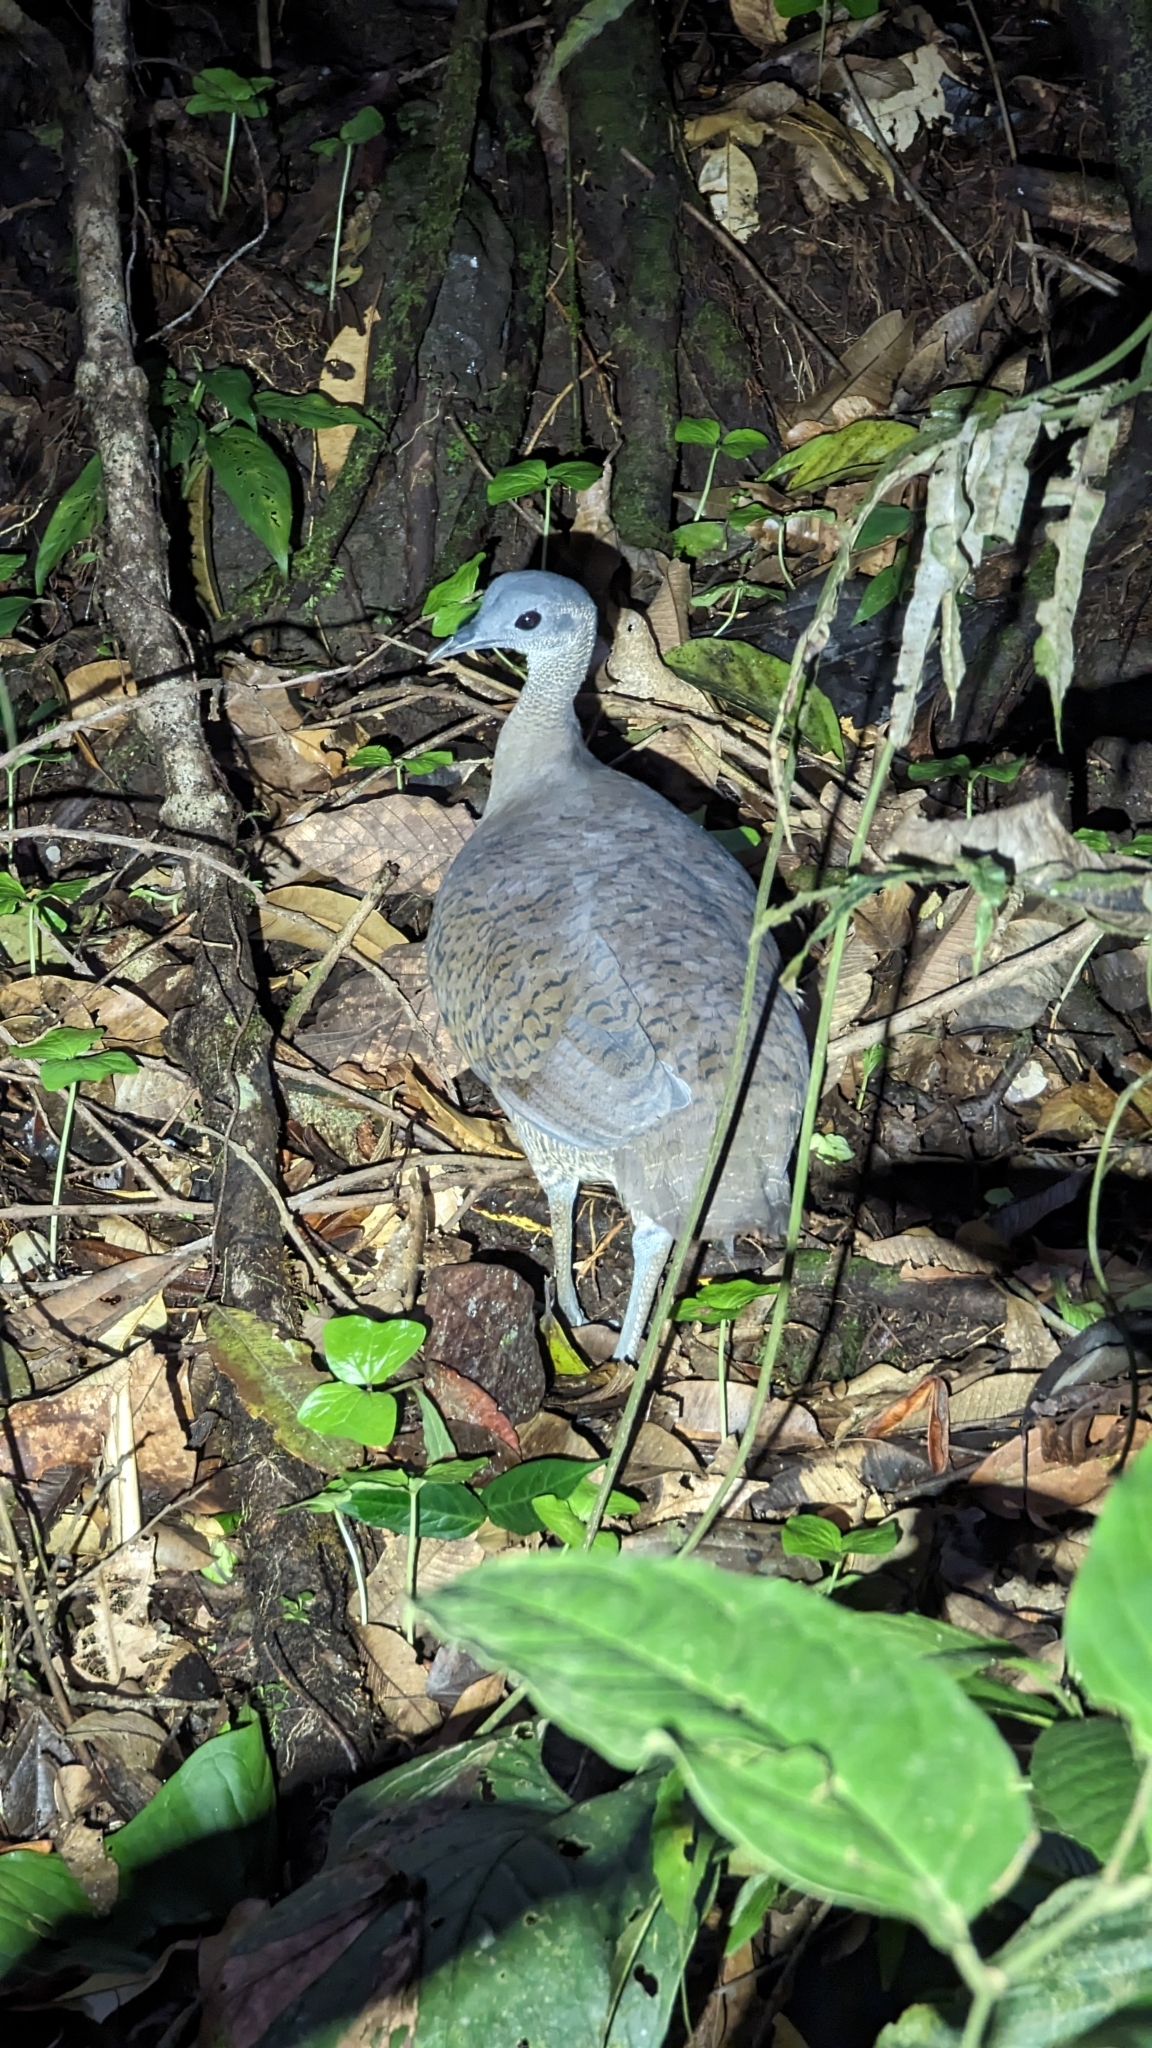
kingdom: Animalia
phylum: Chordata
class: Aves
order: Tinamiformes
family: Tinamidae
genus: Tinamus
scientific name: Tinamus major
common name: Great tinamou
